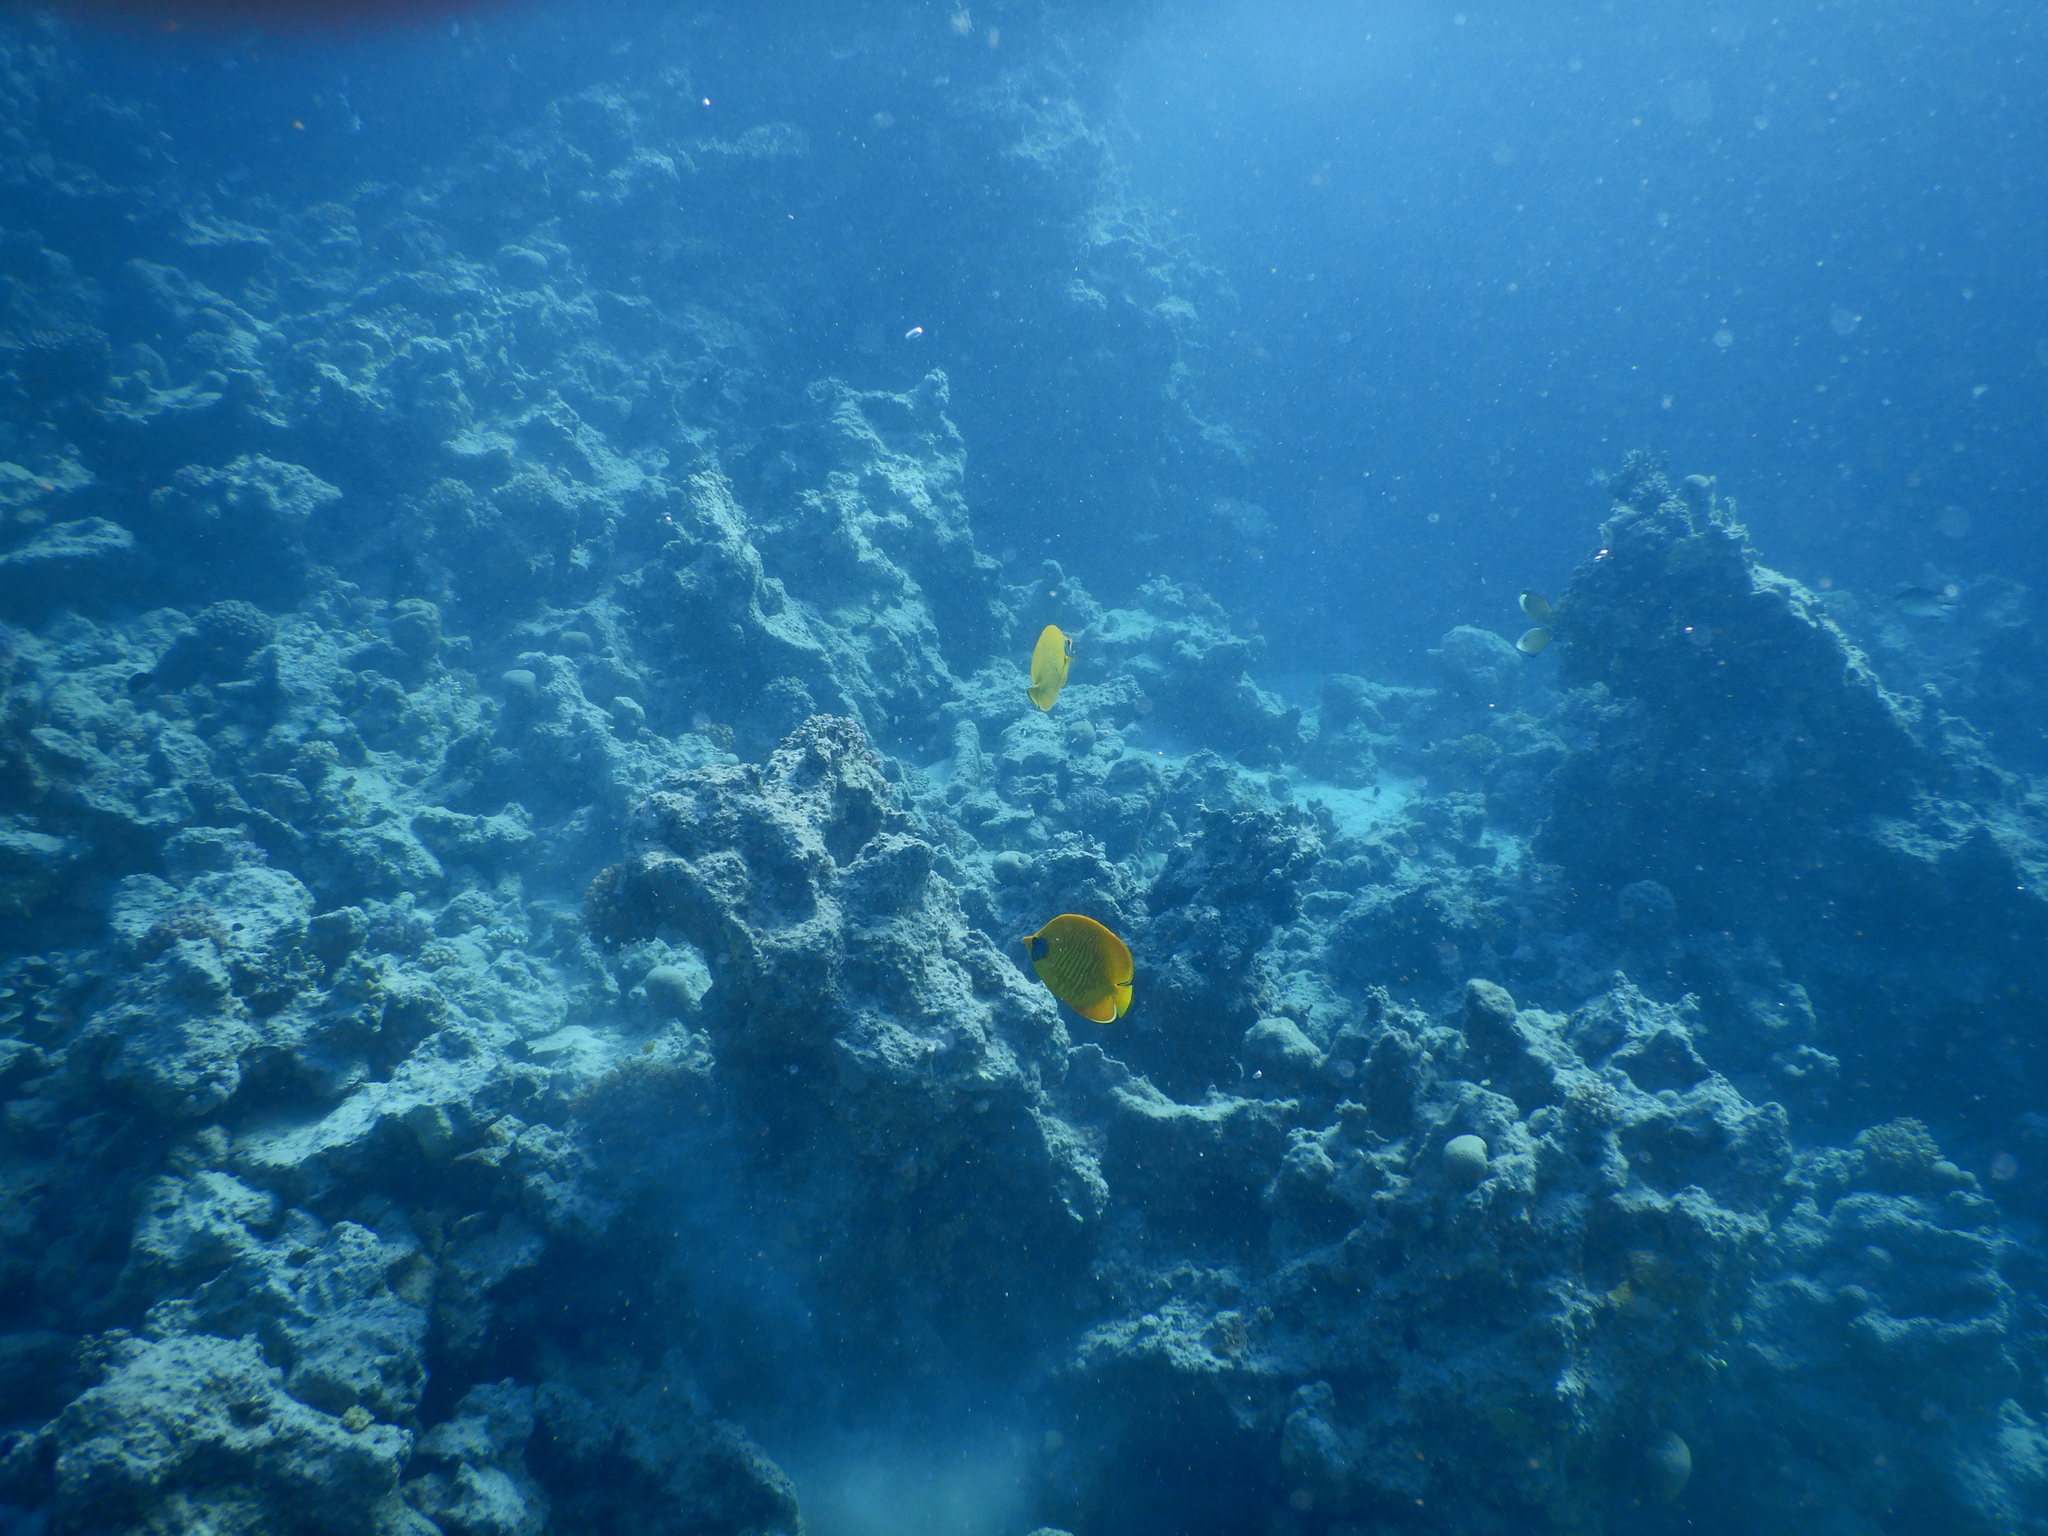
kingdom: Animalia
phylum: Chordata
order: Perciformes
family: Chaetodontidae
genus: Chaetodon
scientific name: Chaetodon semilarvatus
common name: Golden butterflyfish
